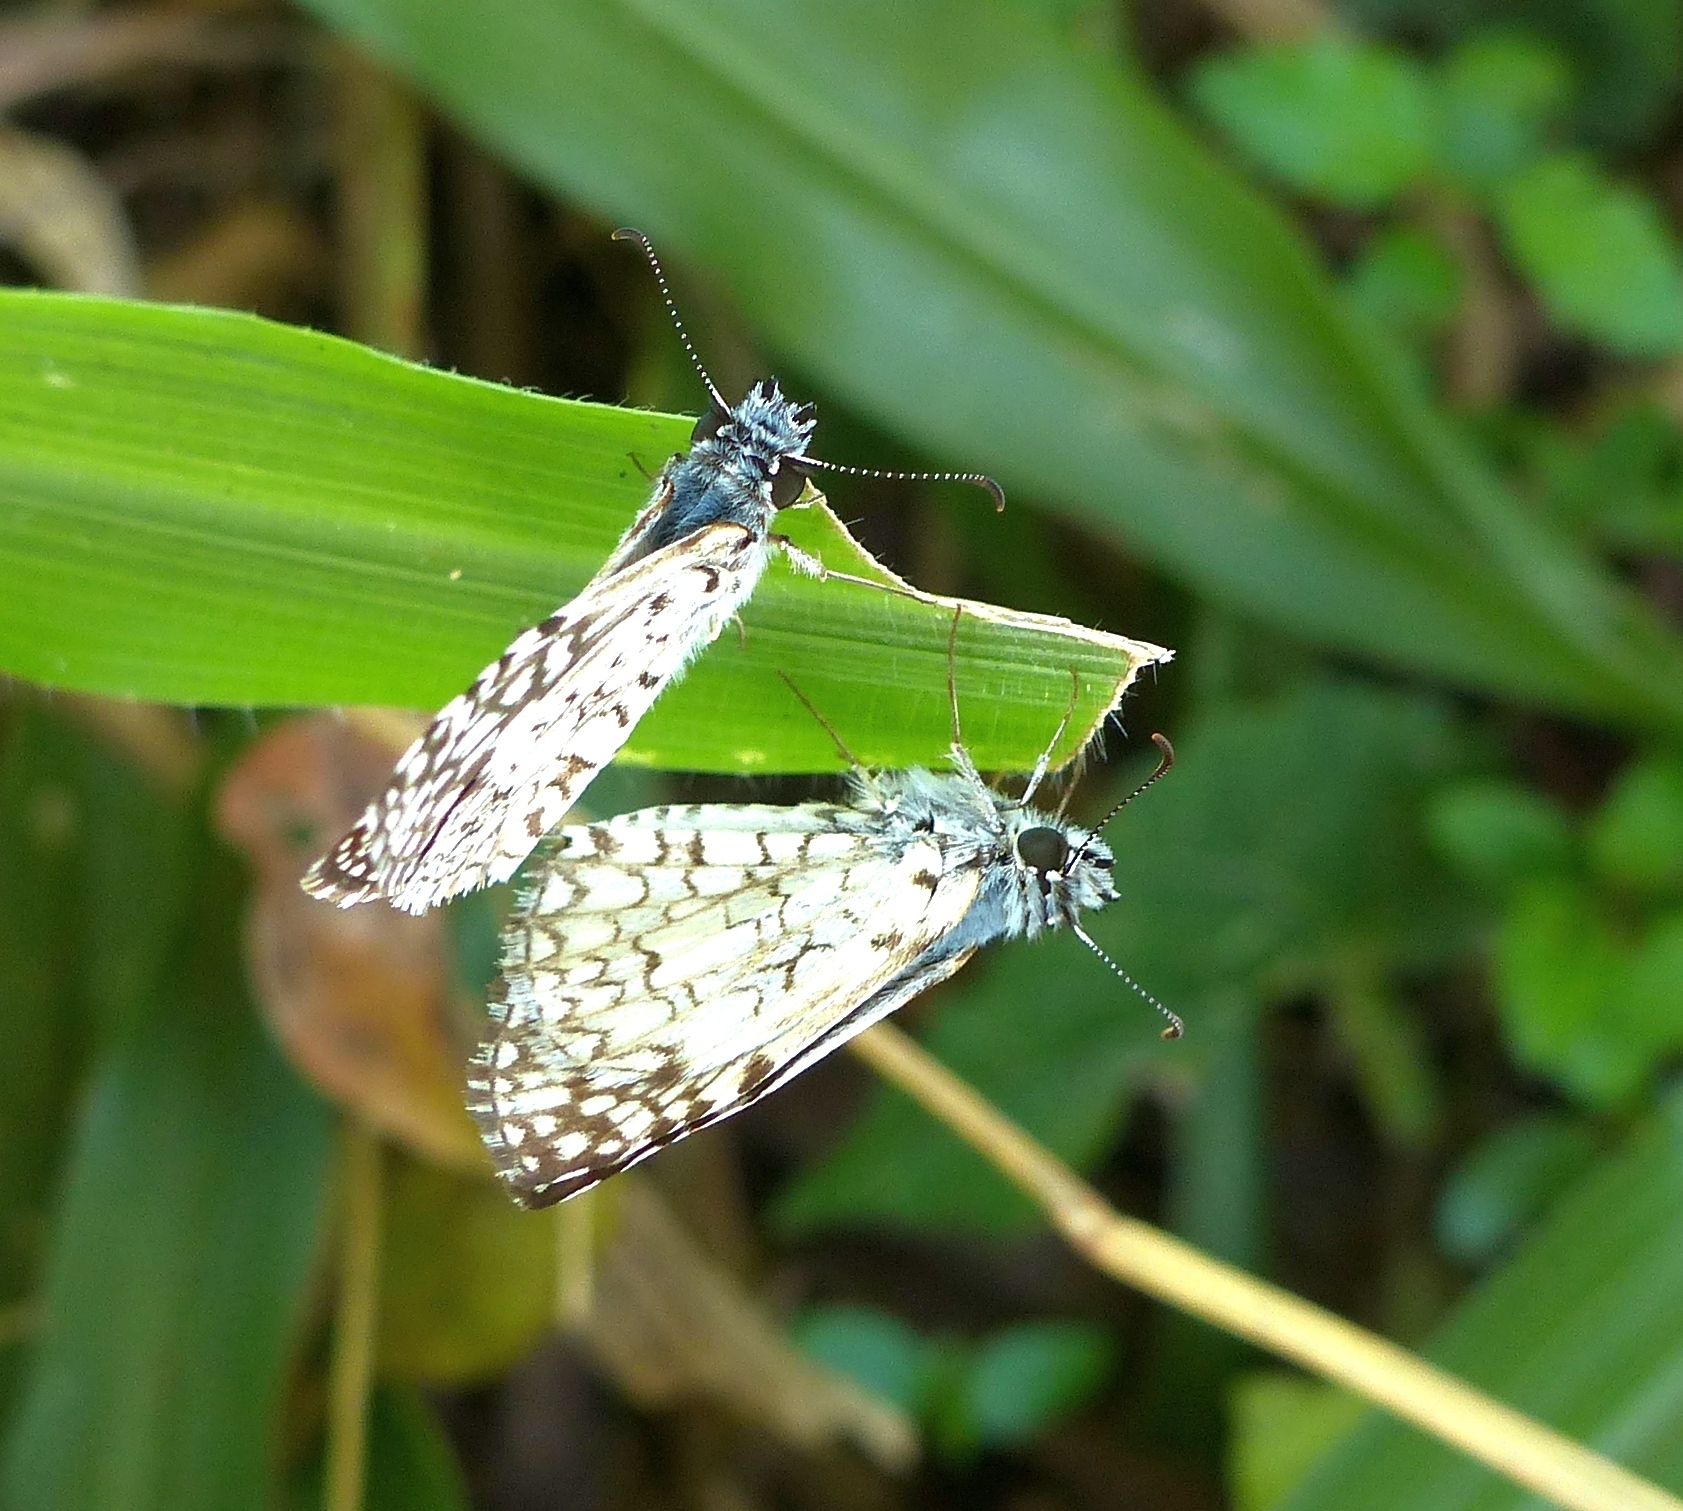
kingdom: Animalia
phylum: Arthropoda
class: Insecta
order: Lepidoptera
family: Hesperiidae
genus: Pyrgus
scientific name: Pyrgus oileus
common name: Tropical checkered-skipper
